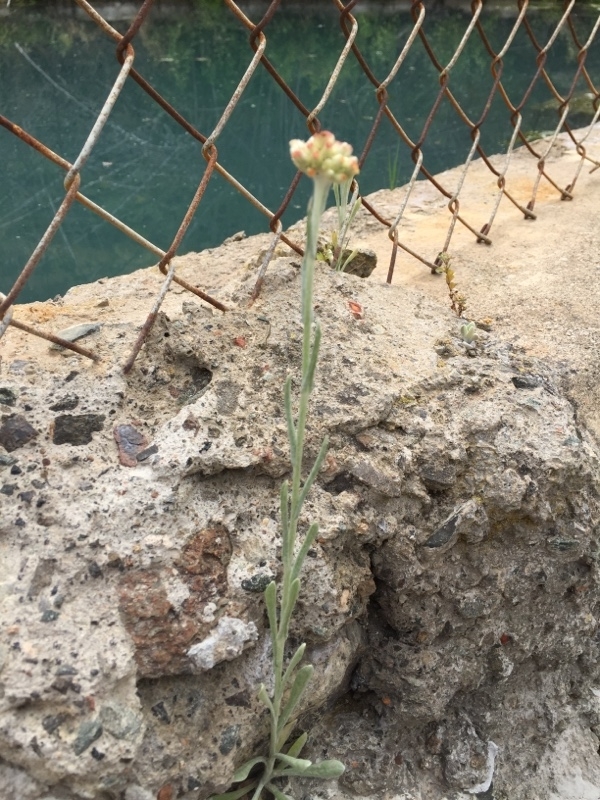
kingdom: Plantae
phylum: Tracheophyta
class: Magnoliopsida
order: Asterales
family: Asteraceae
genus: Helichrysum
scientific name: Helichrysum luteoalbum
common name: Daisy
